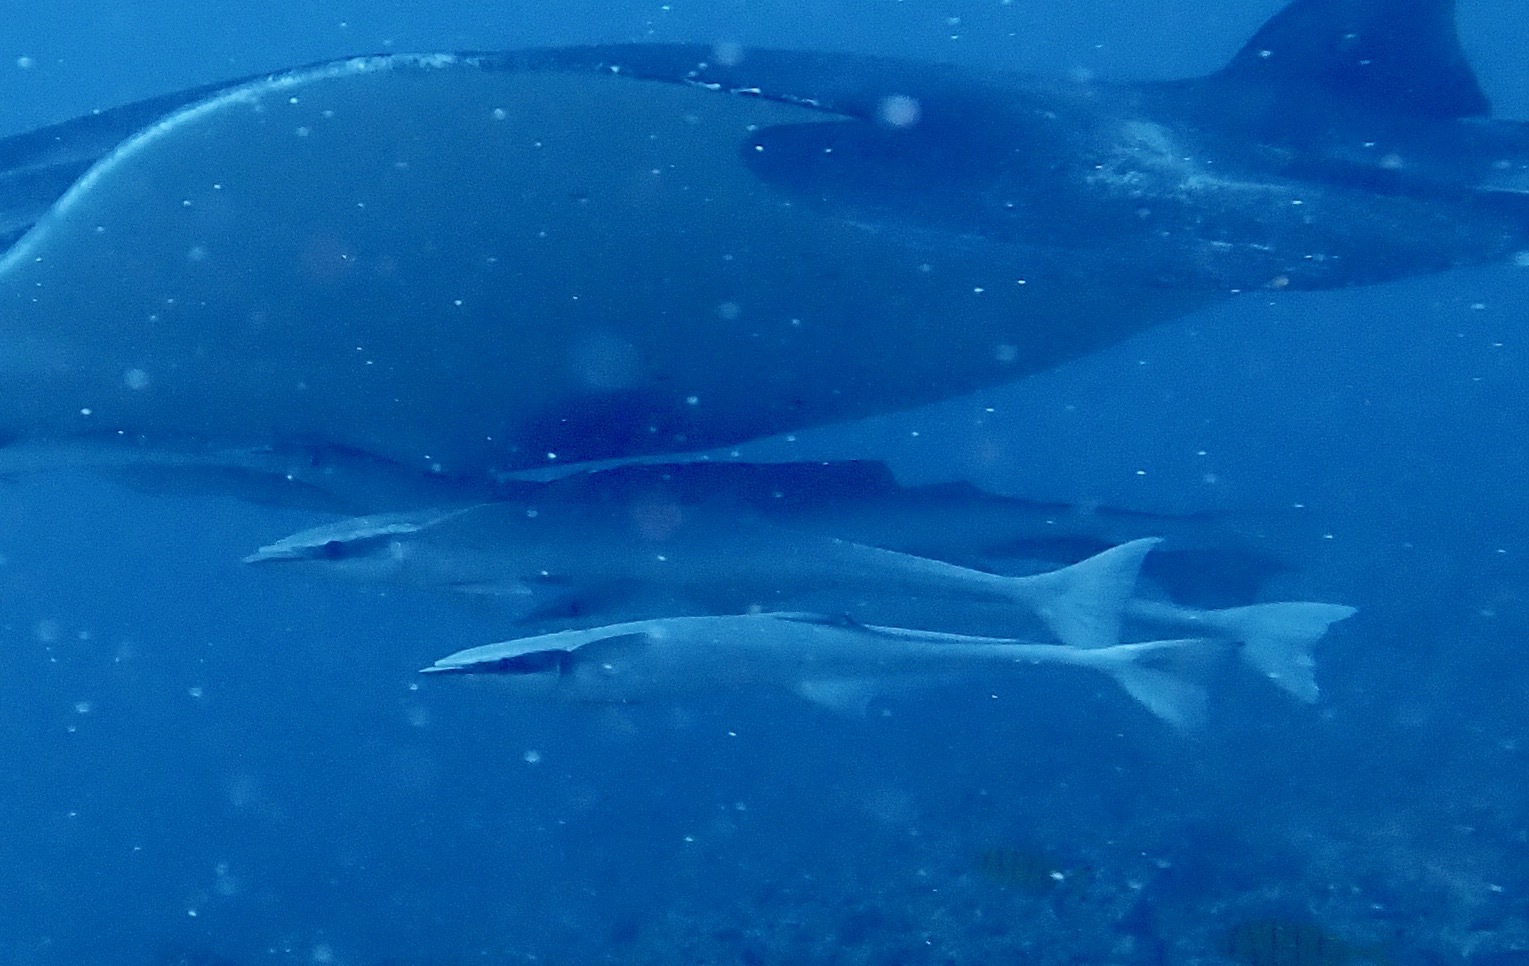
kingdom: Animalia
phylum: Chordata
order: Perciformes
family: Echeneidae
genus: Echeneis
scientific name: Echeneis naucrates
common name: Sharksucker
